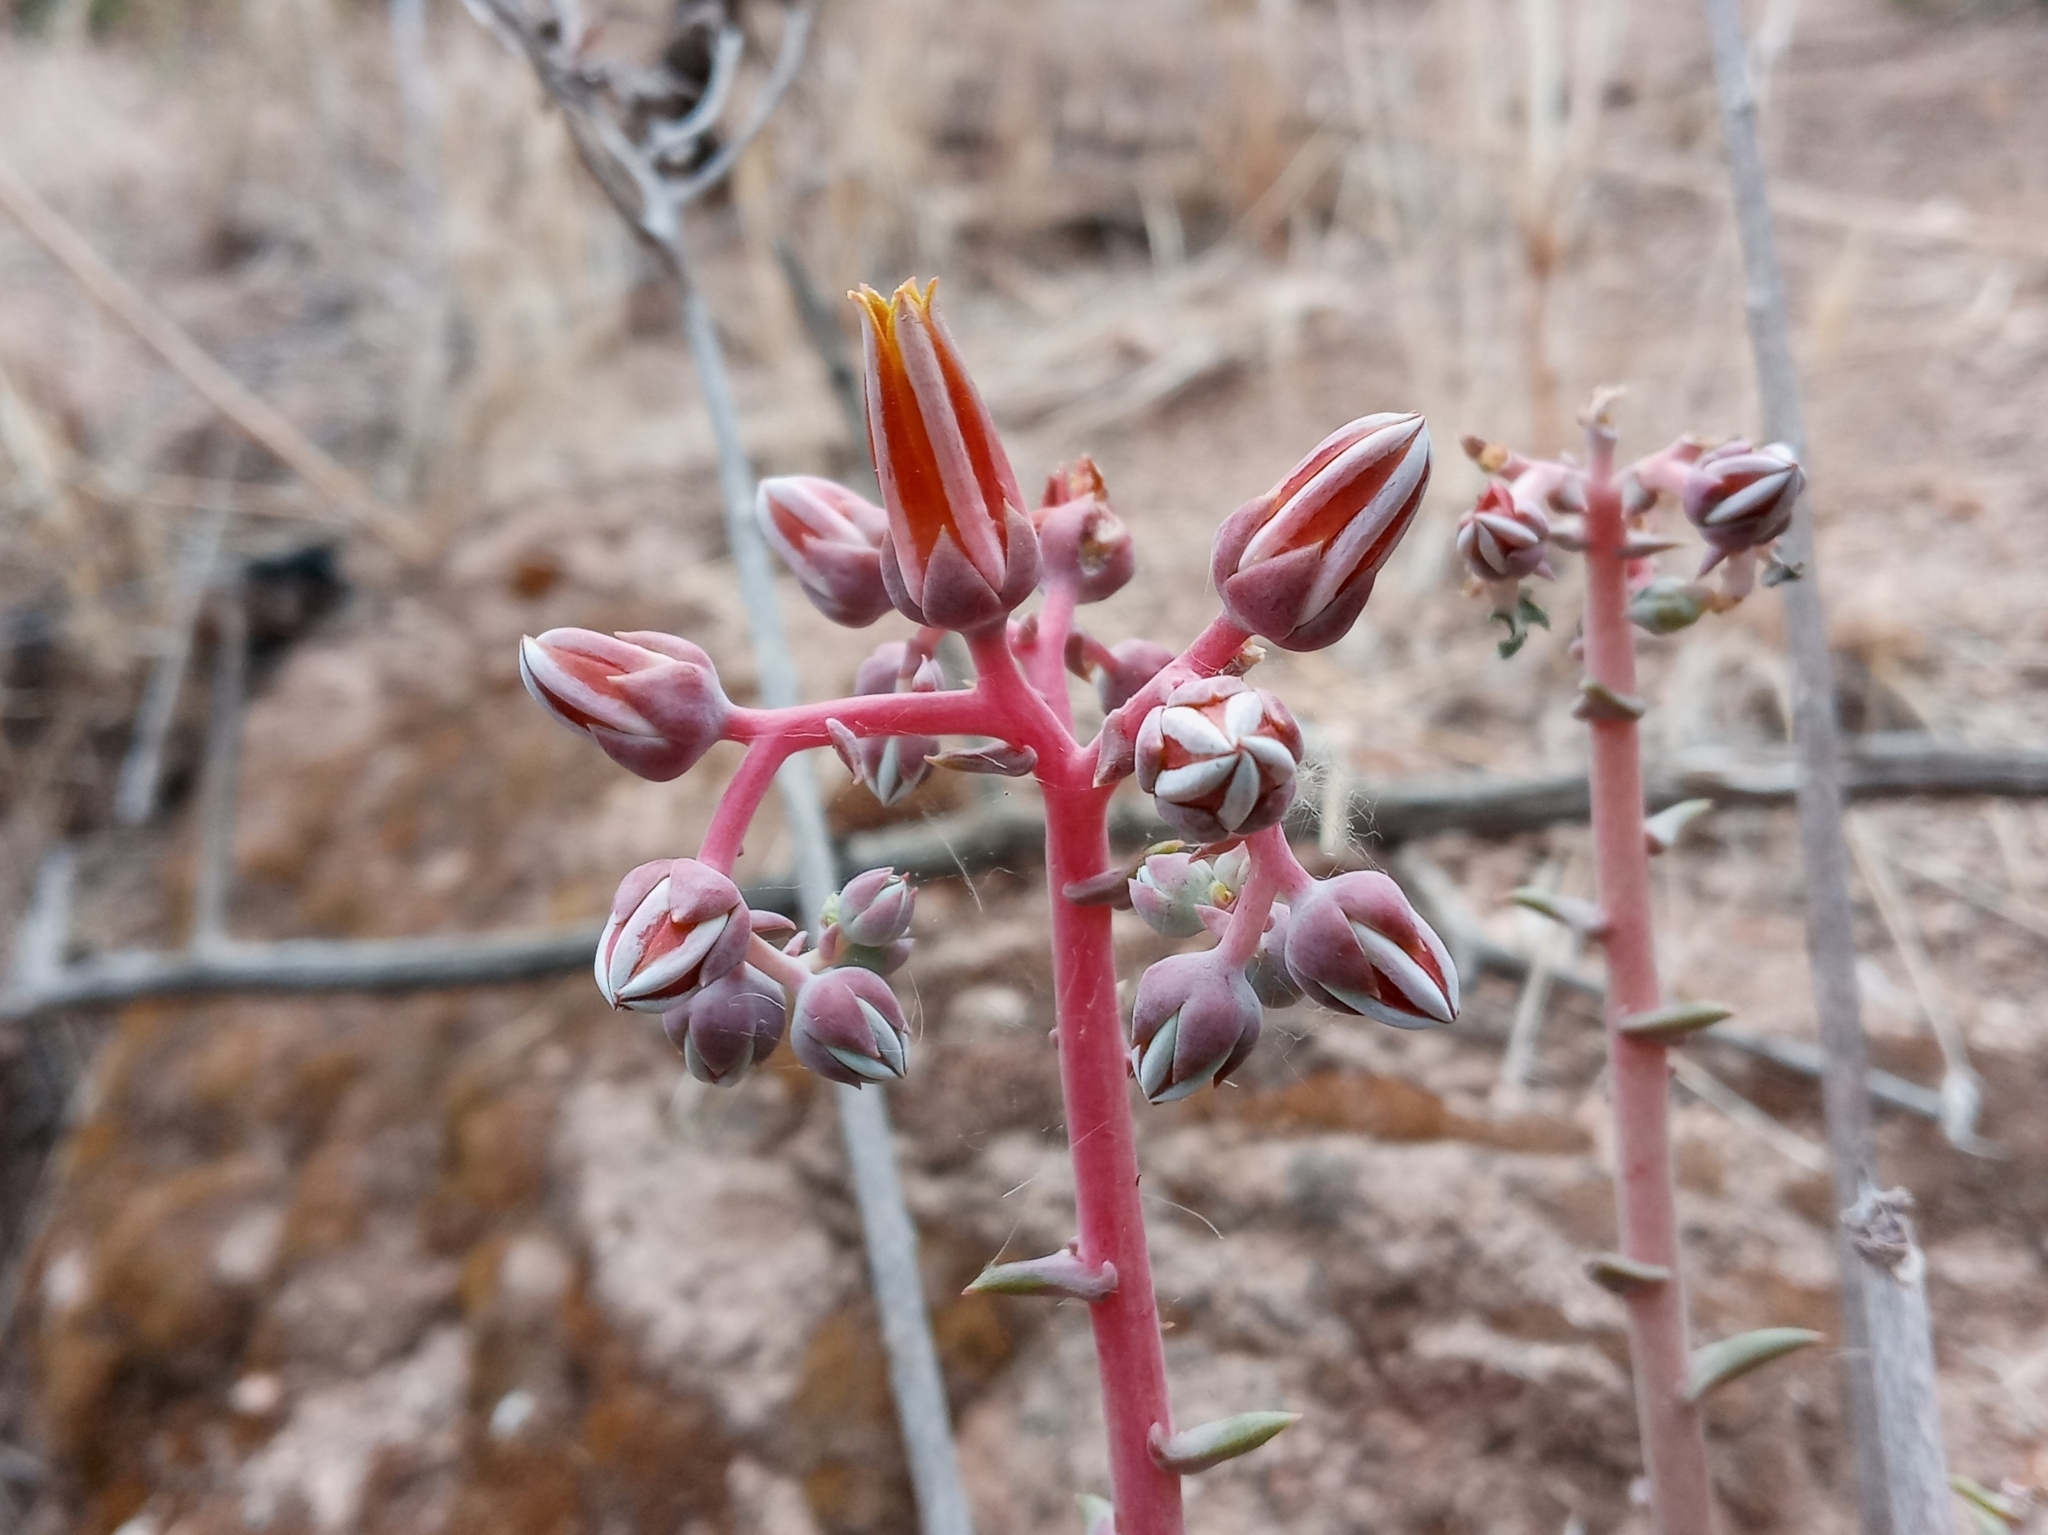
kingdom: Plantae
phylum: Tracheophyta
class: Magnoliopsida
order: Saxifragales
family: Crassulaceae
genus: Dudleya
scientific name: Dudleya lanceolata
